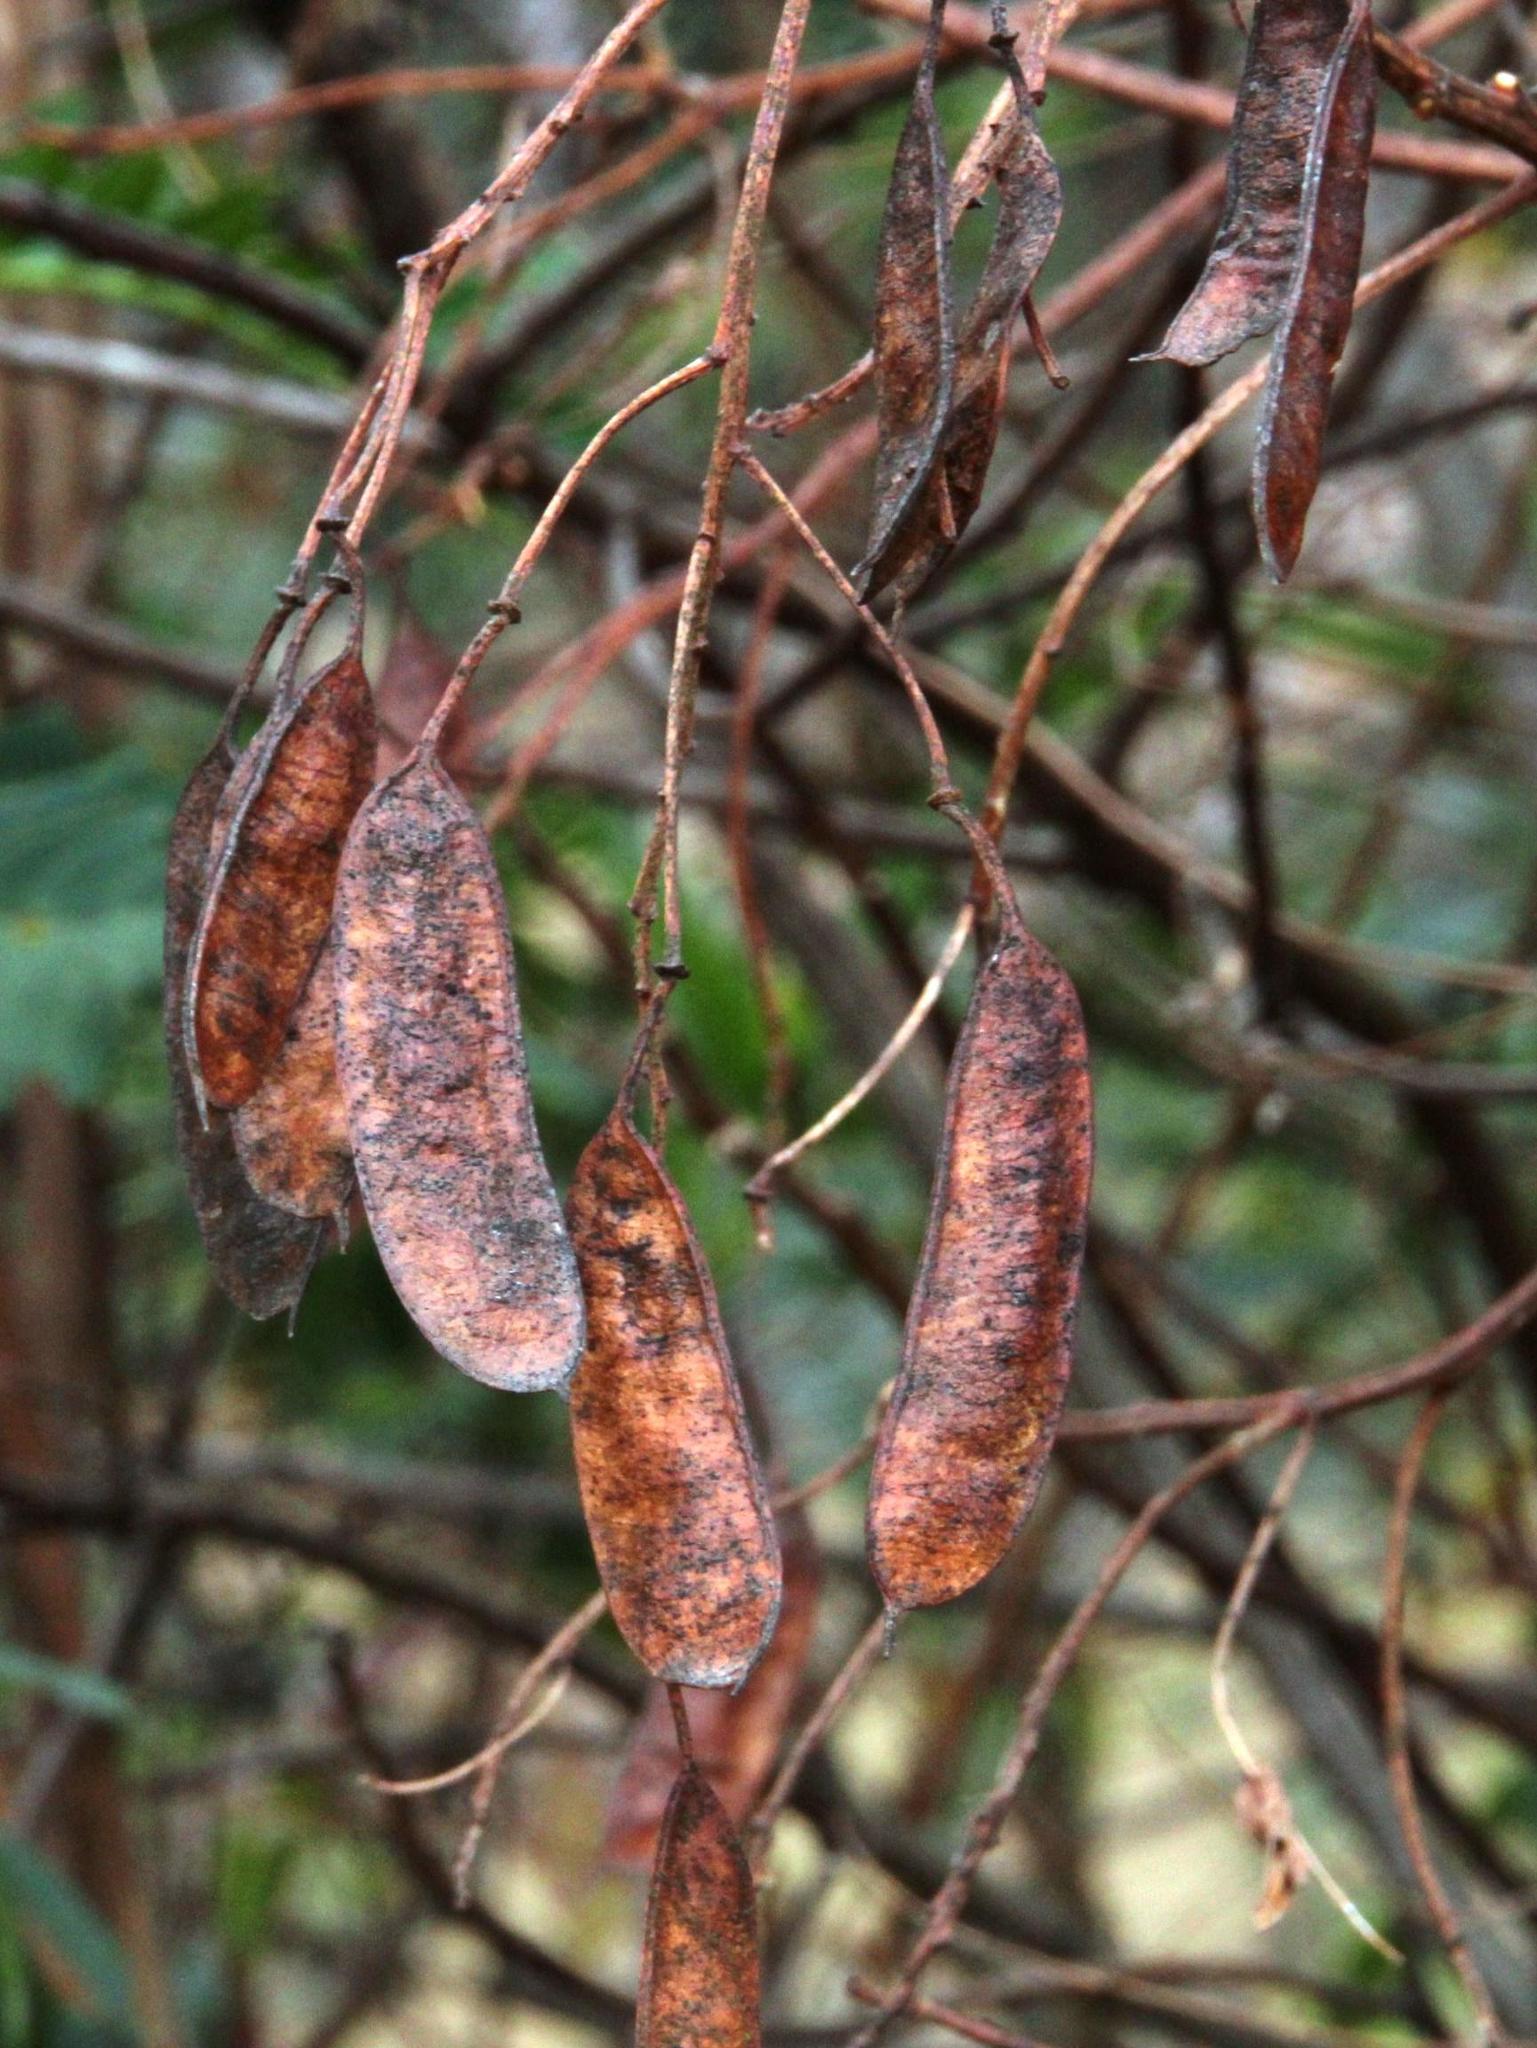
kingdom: Plantae
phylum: Tracheophyta
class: Magnoliopsida
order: Fabales
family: Fabaceae
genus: Senna
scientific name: Senna aymara
